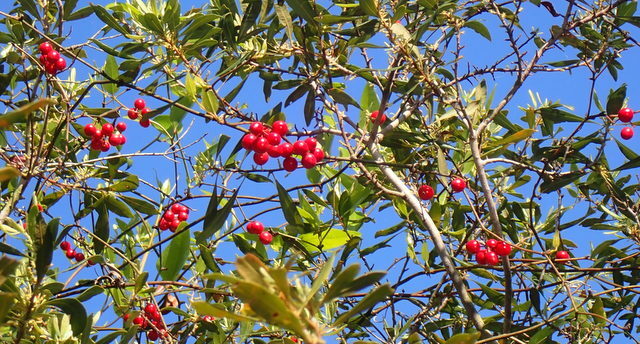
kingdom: Plantae
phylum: Tracheophyta
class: Liliopsida
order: Liliales
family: Smilacaceae
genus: Smilax
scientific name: Smilax walteri
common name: Coral greenbrier
